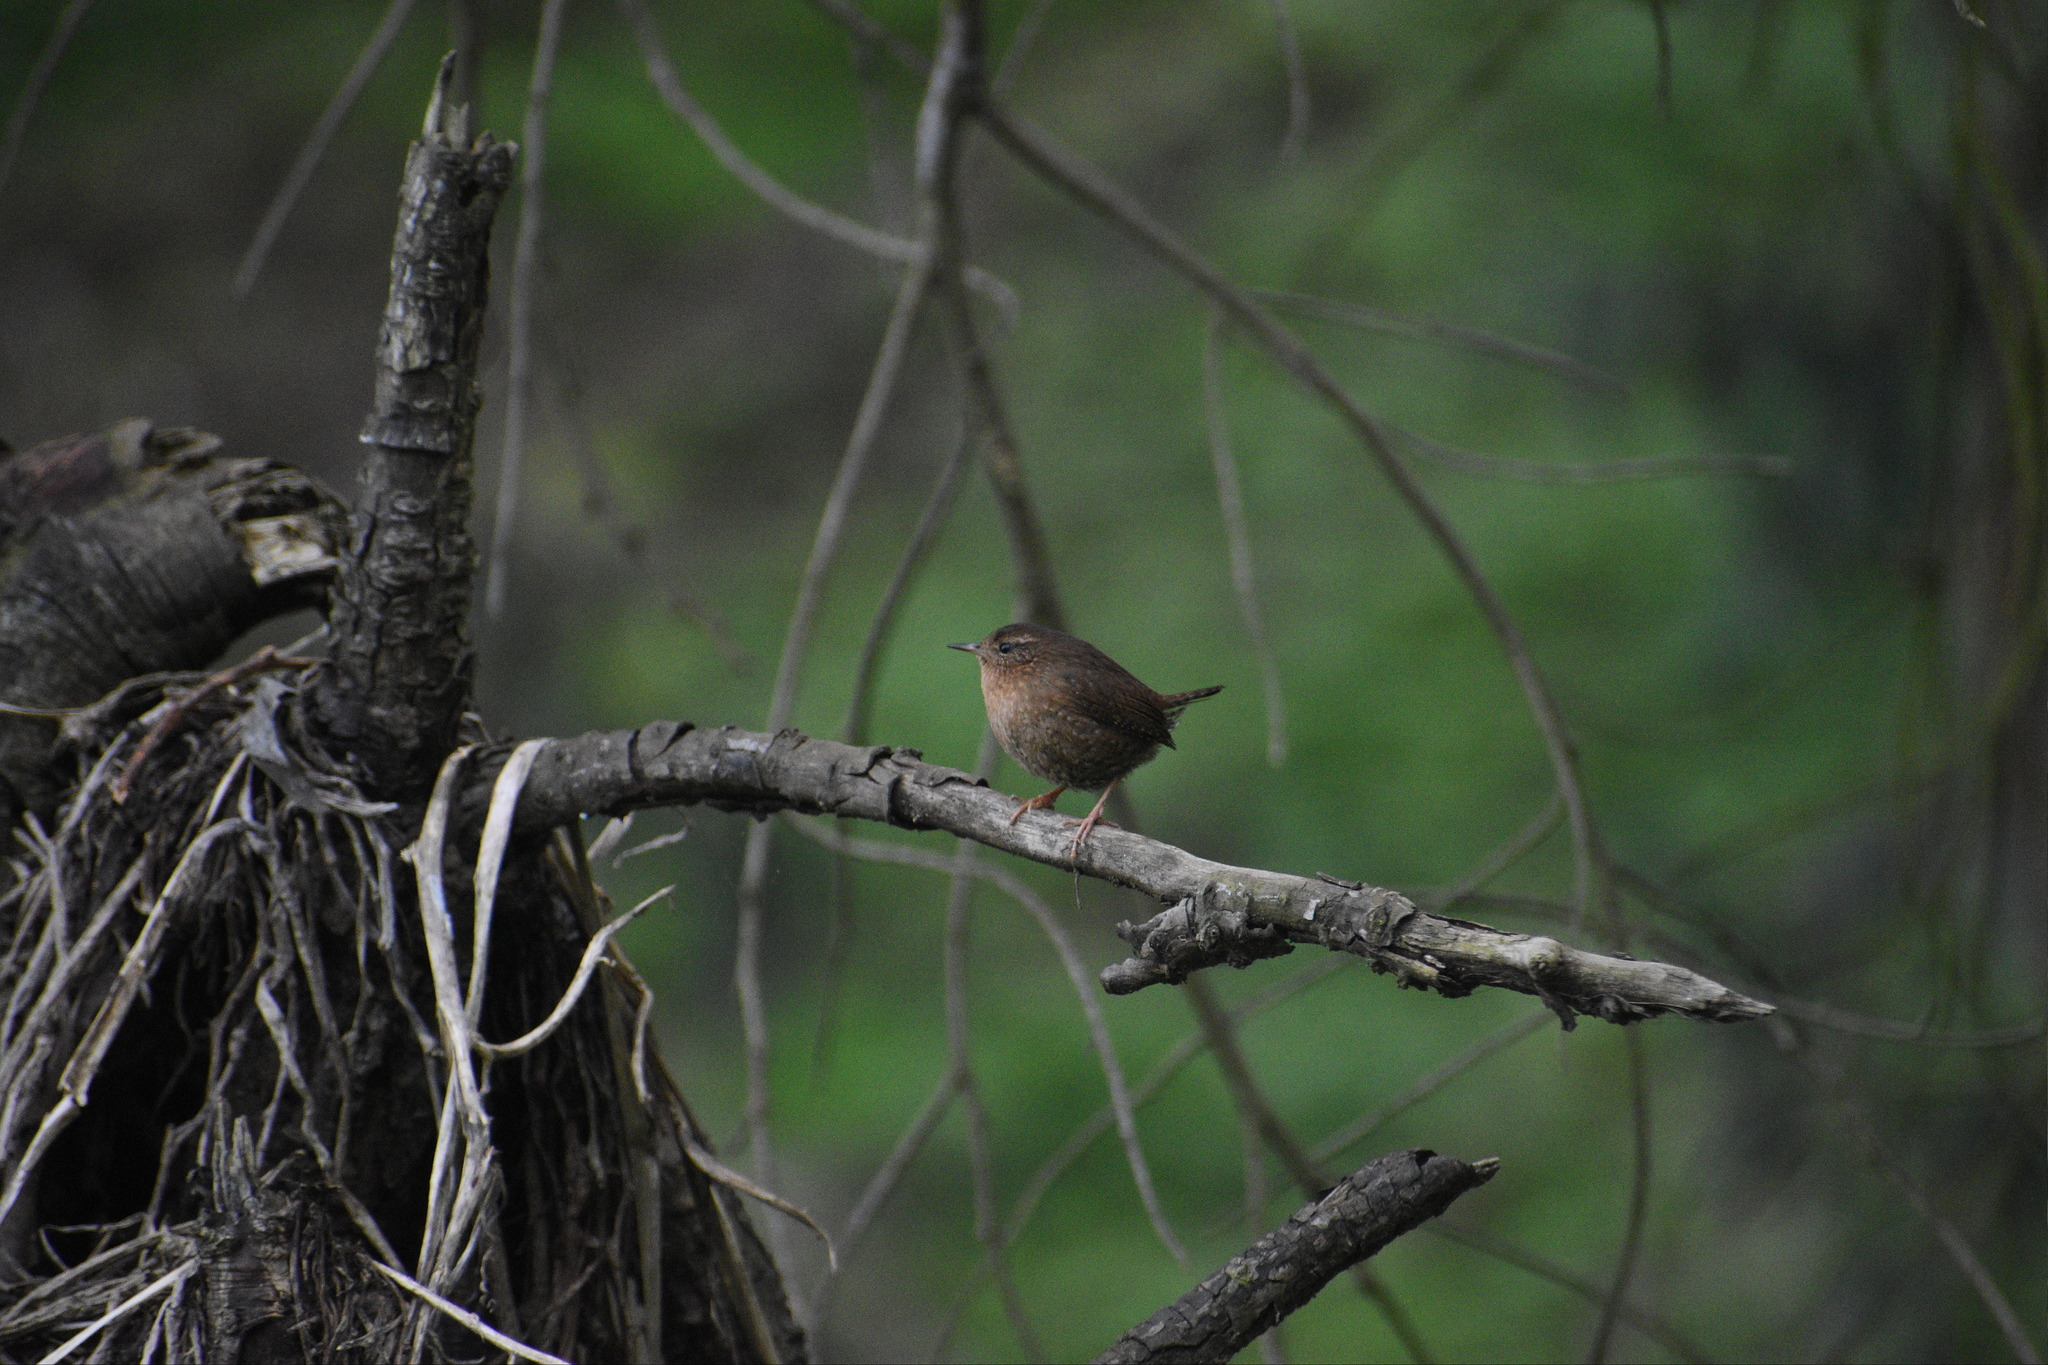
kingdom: Animalia
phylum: Chordata
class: Aves
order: Passeriformes
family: Troglodytidae
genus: Troglodytes
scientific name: Troglodytes pacificus
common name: Pacific wren
